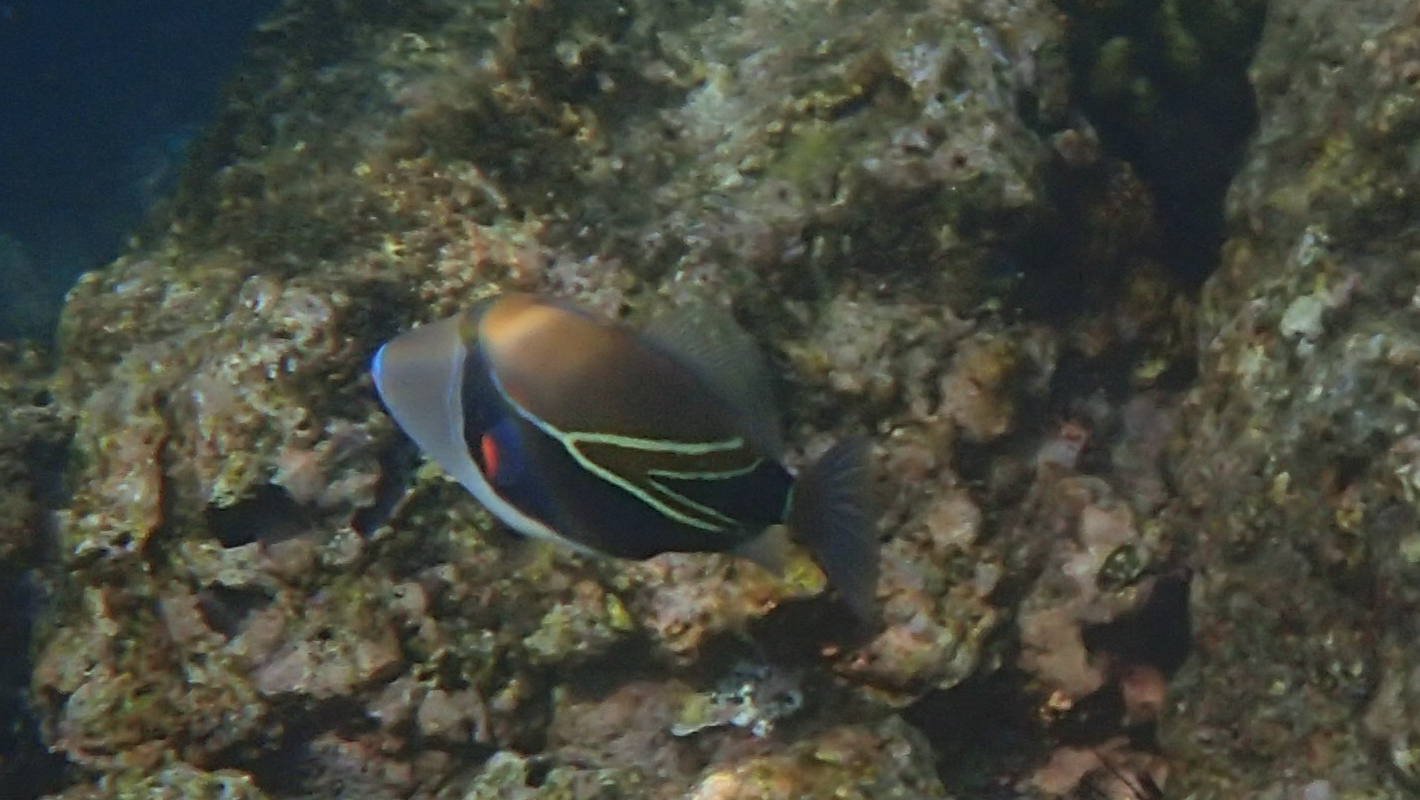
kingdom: Animalia
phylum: Chordata
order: Tetraodontiformes
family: Balistidae
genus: Rhinecanthus
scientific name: Rhinecanthus rectangulus
